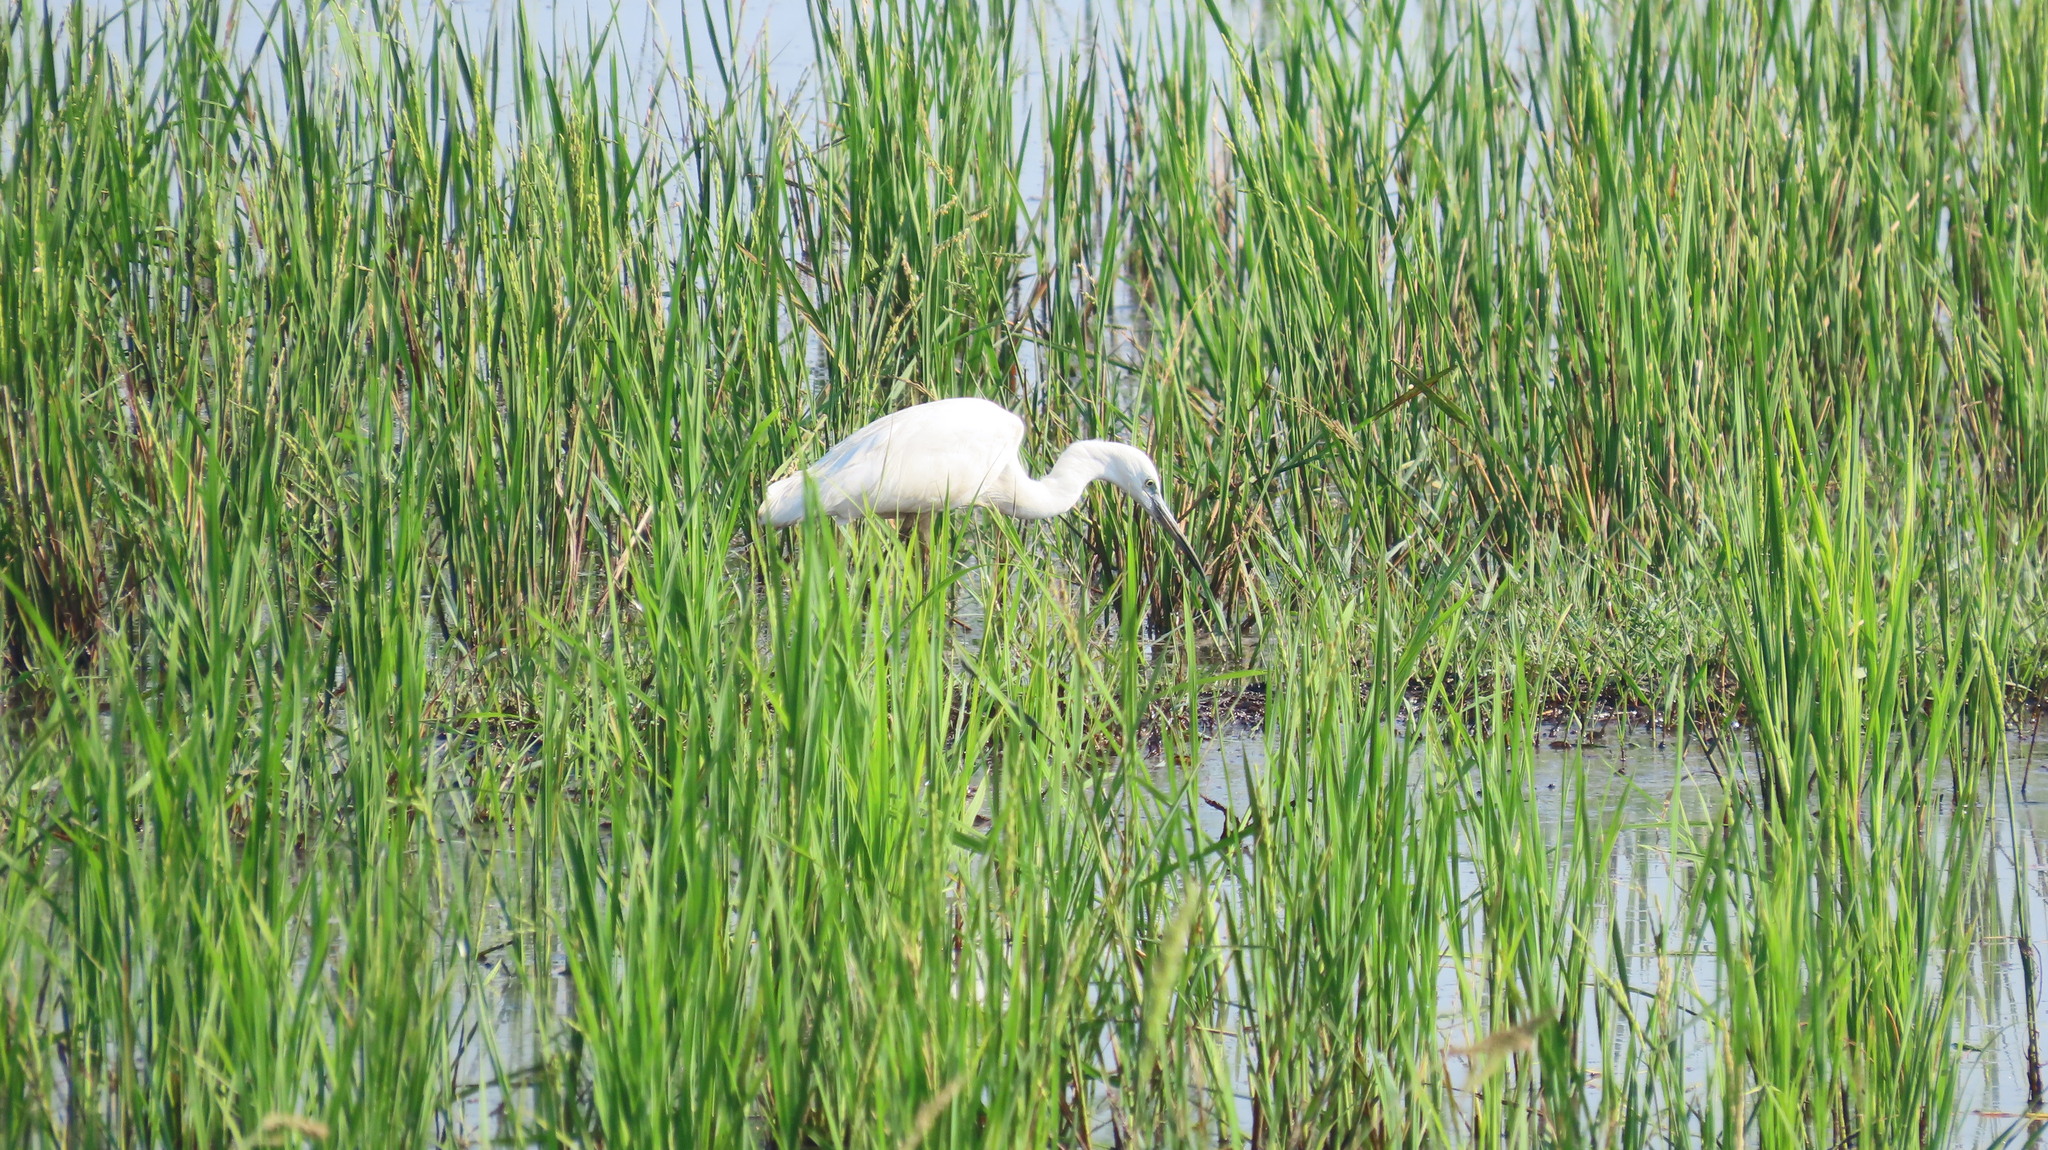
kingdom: Animalia
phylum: Chordata
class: Aves
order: Pelecaniformes
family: Ardeidae
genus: Egretta
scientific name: Egretta garzetta
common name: Little egret
